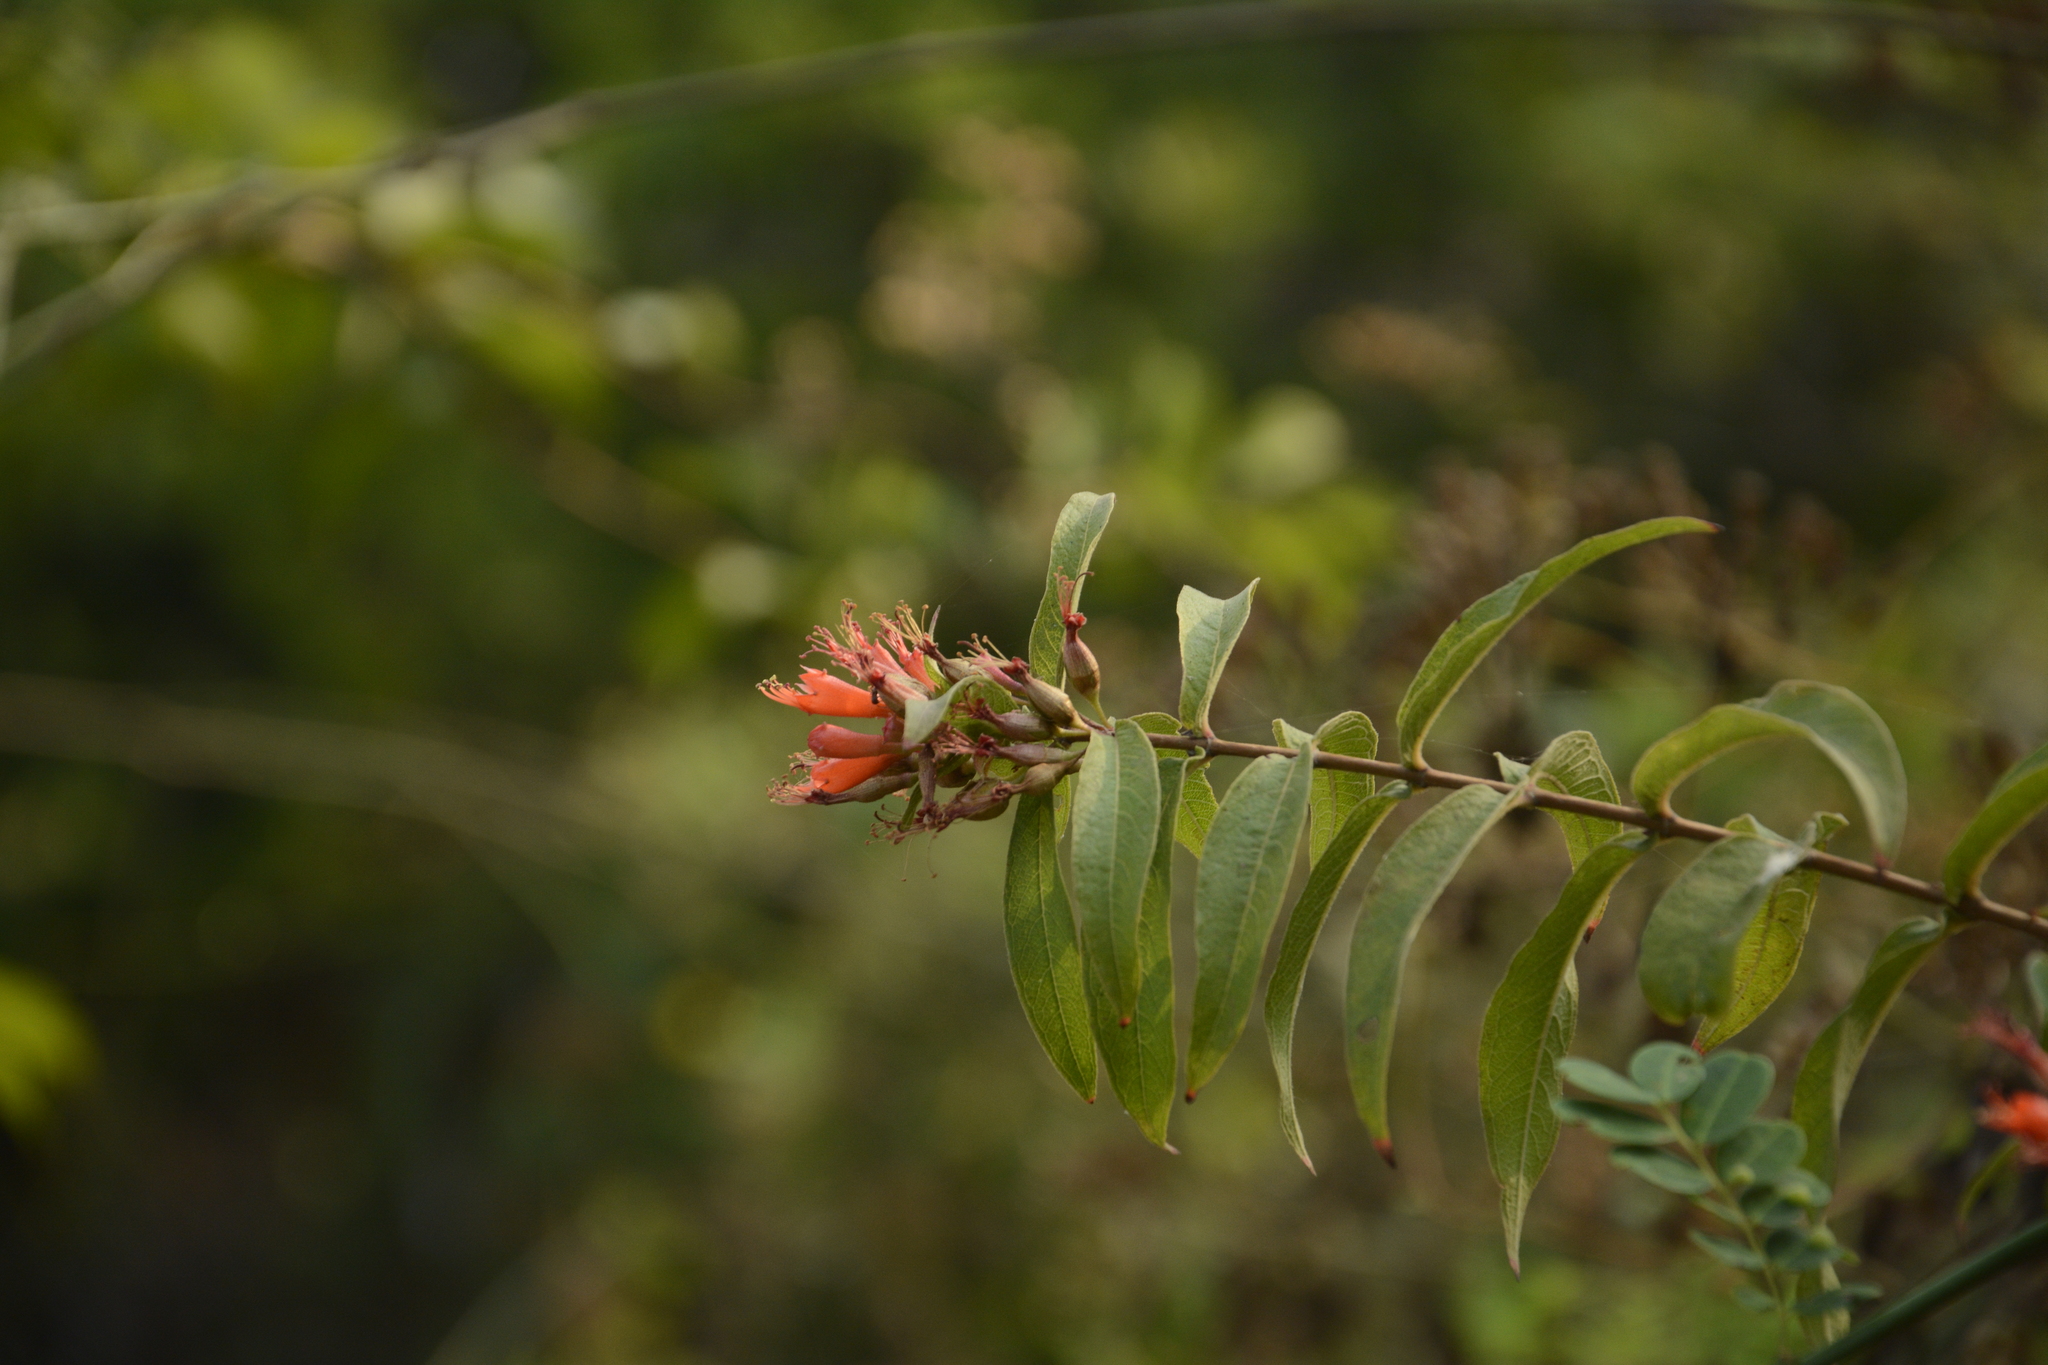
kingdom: Plantae
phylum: Tracheophyta
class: Magnoliopsida
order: Myrtales
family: Lythraceae
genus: Woodfordia
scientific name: Woodfordia fruticosa
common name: Shiranji-tea
